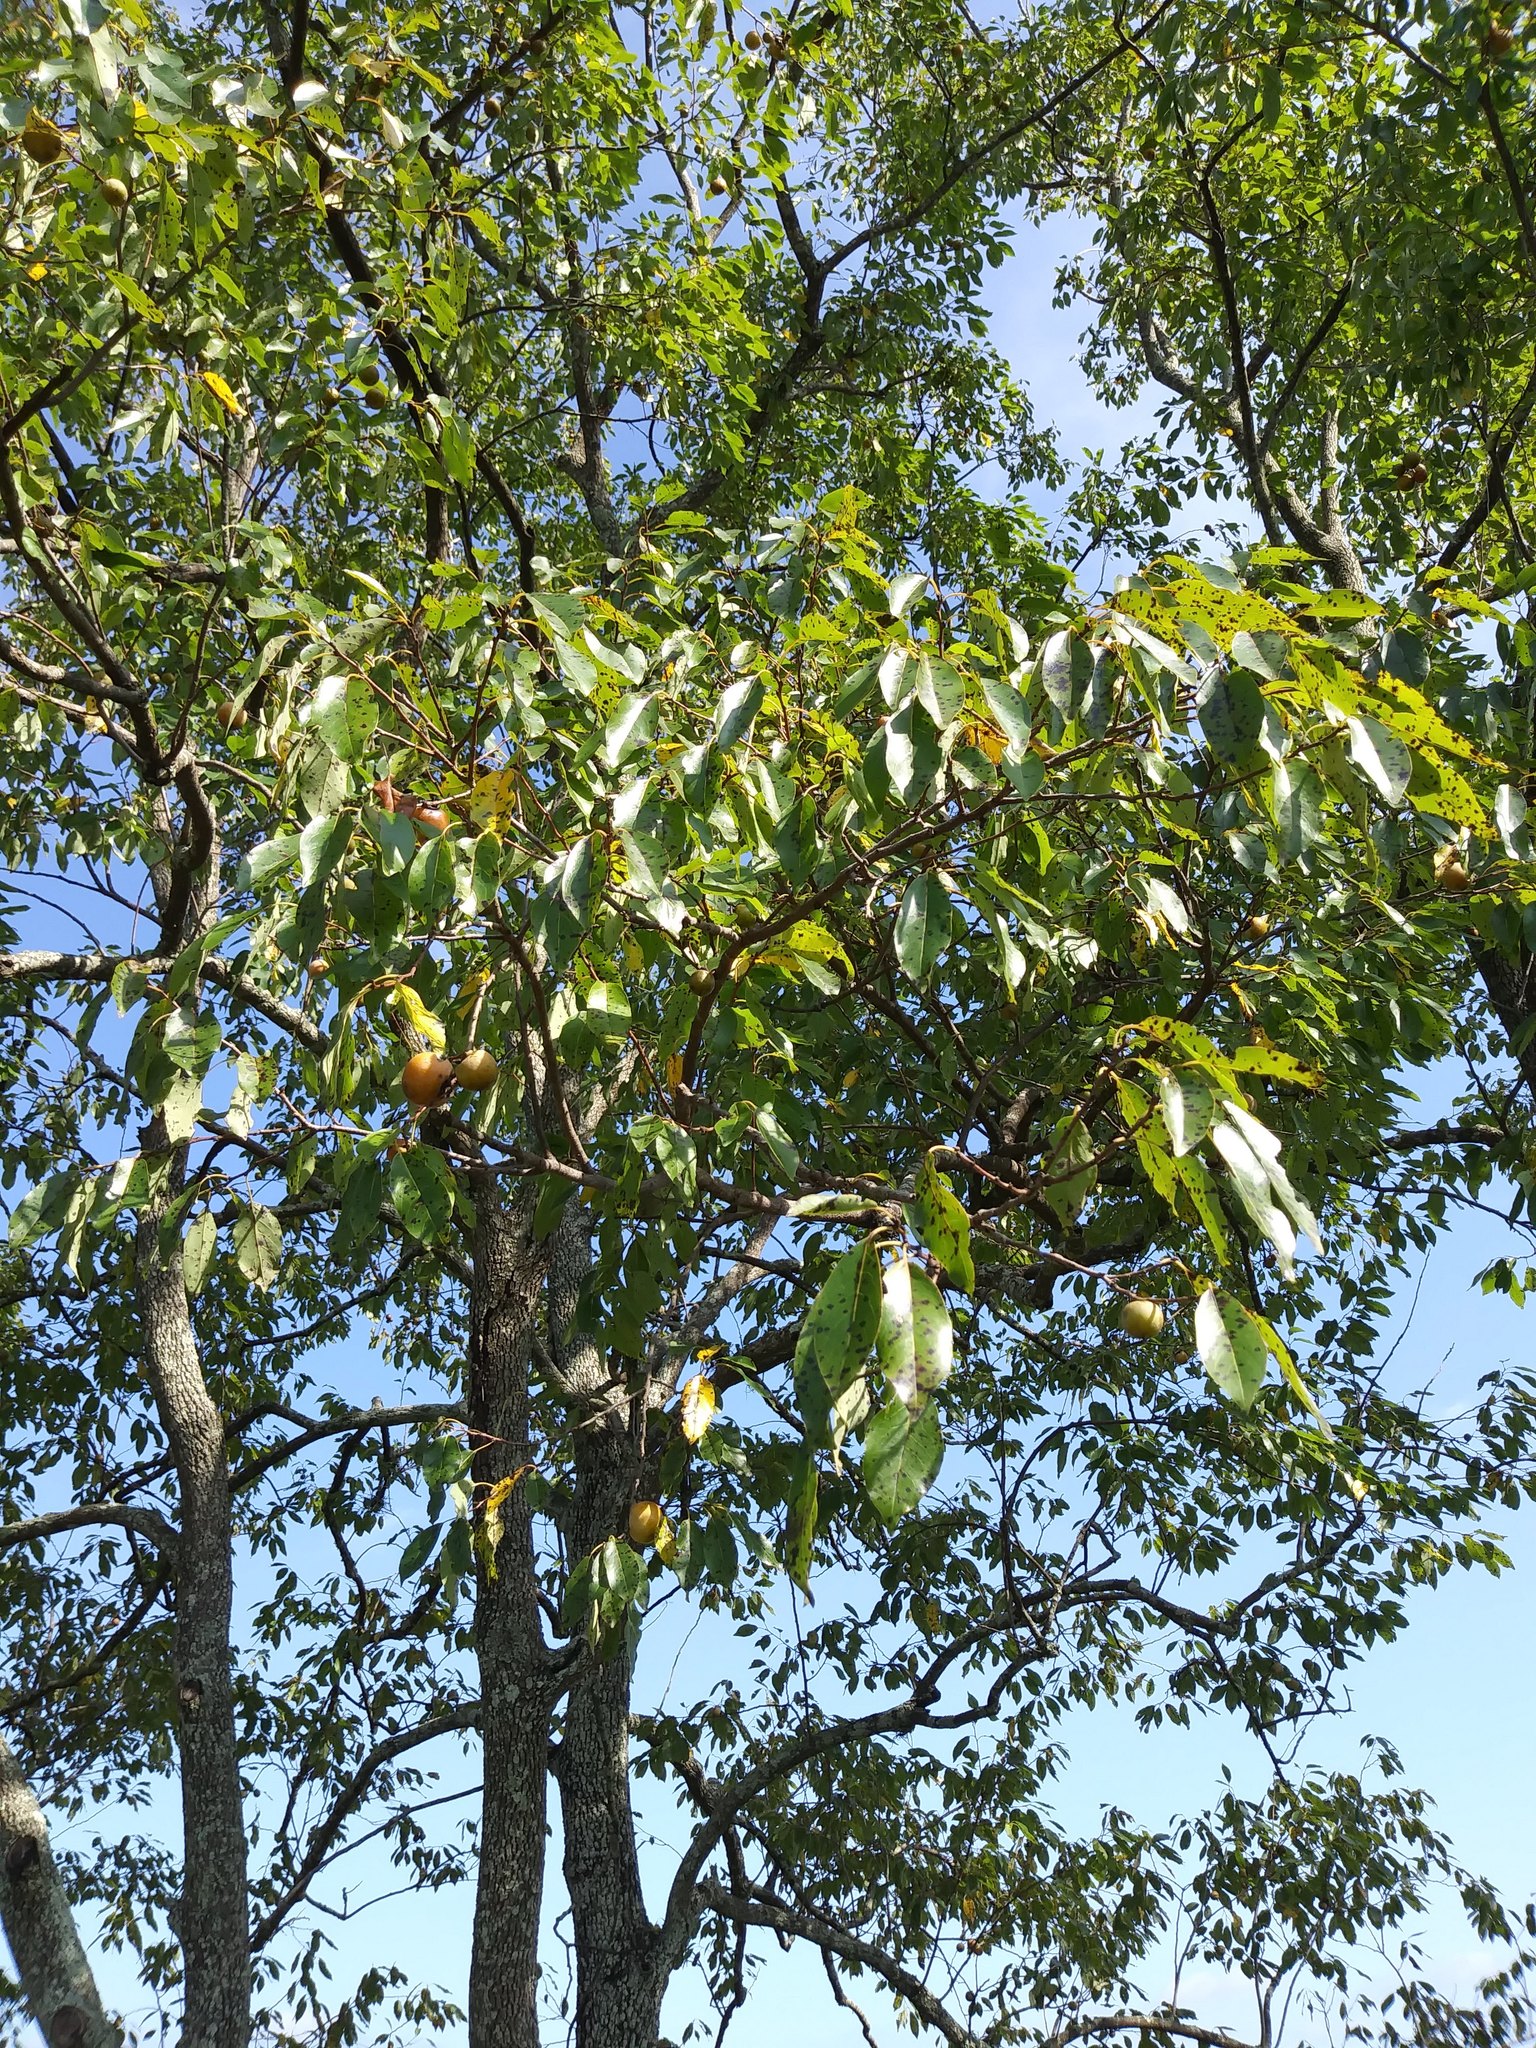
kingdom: Plantae
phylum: Tracheophyta
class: Magnoliopsida
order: Ericales
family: Ebenaceae
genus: Diospyros
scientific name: Diospyros virginiana
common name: Persimmon
